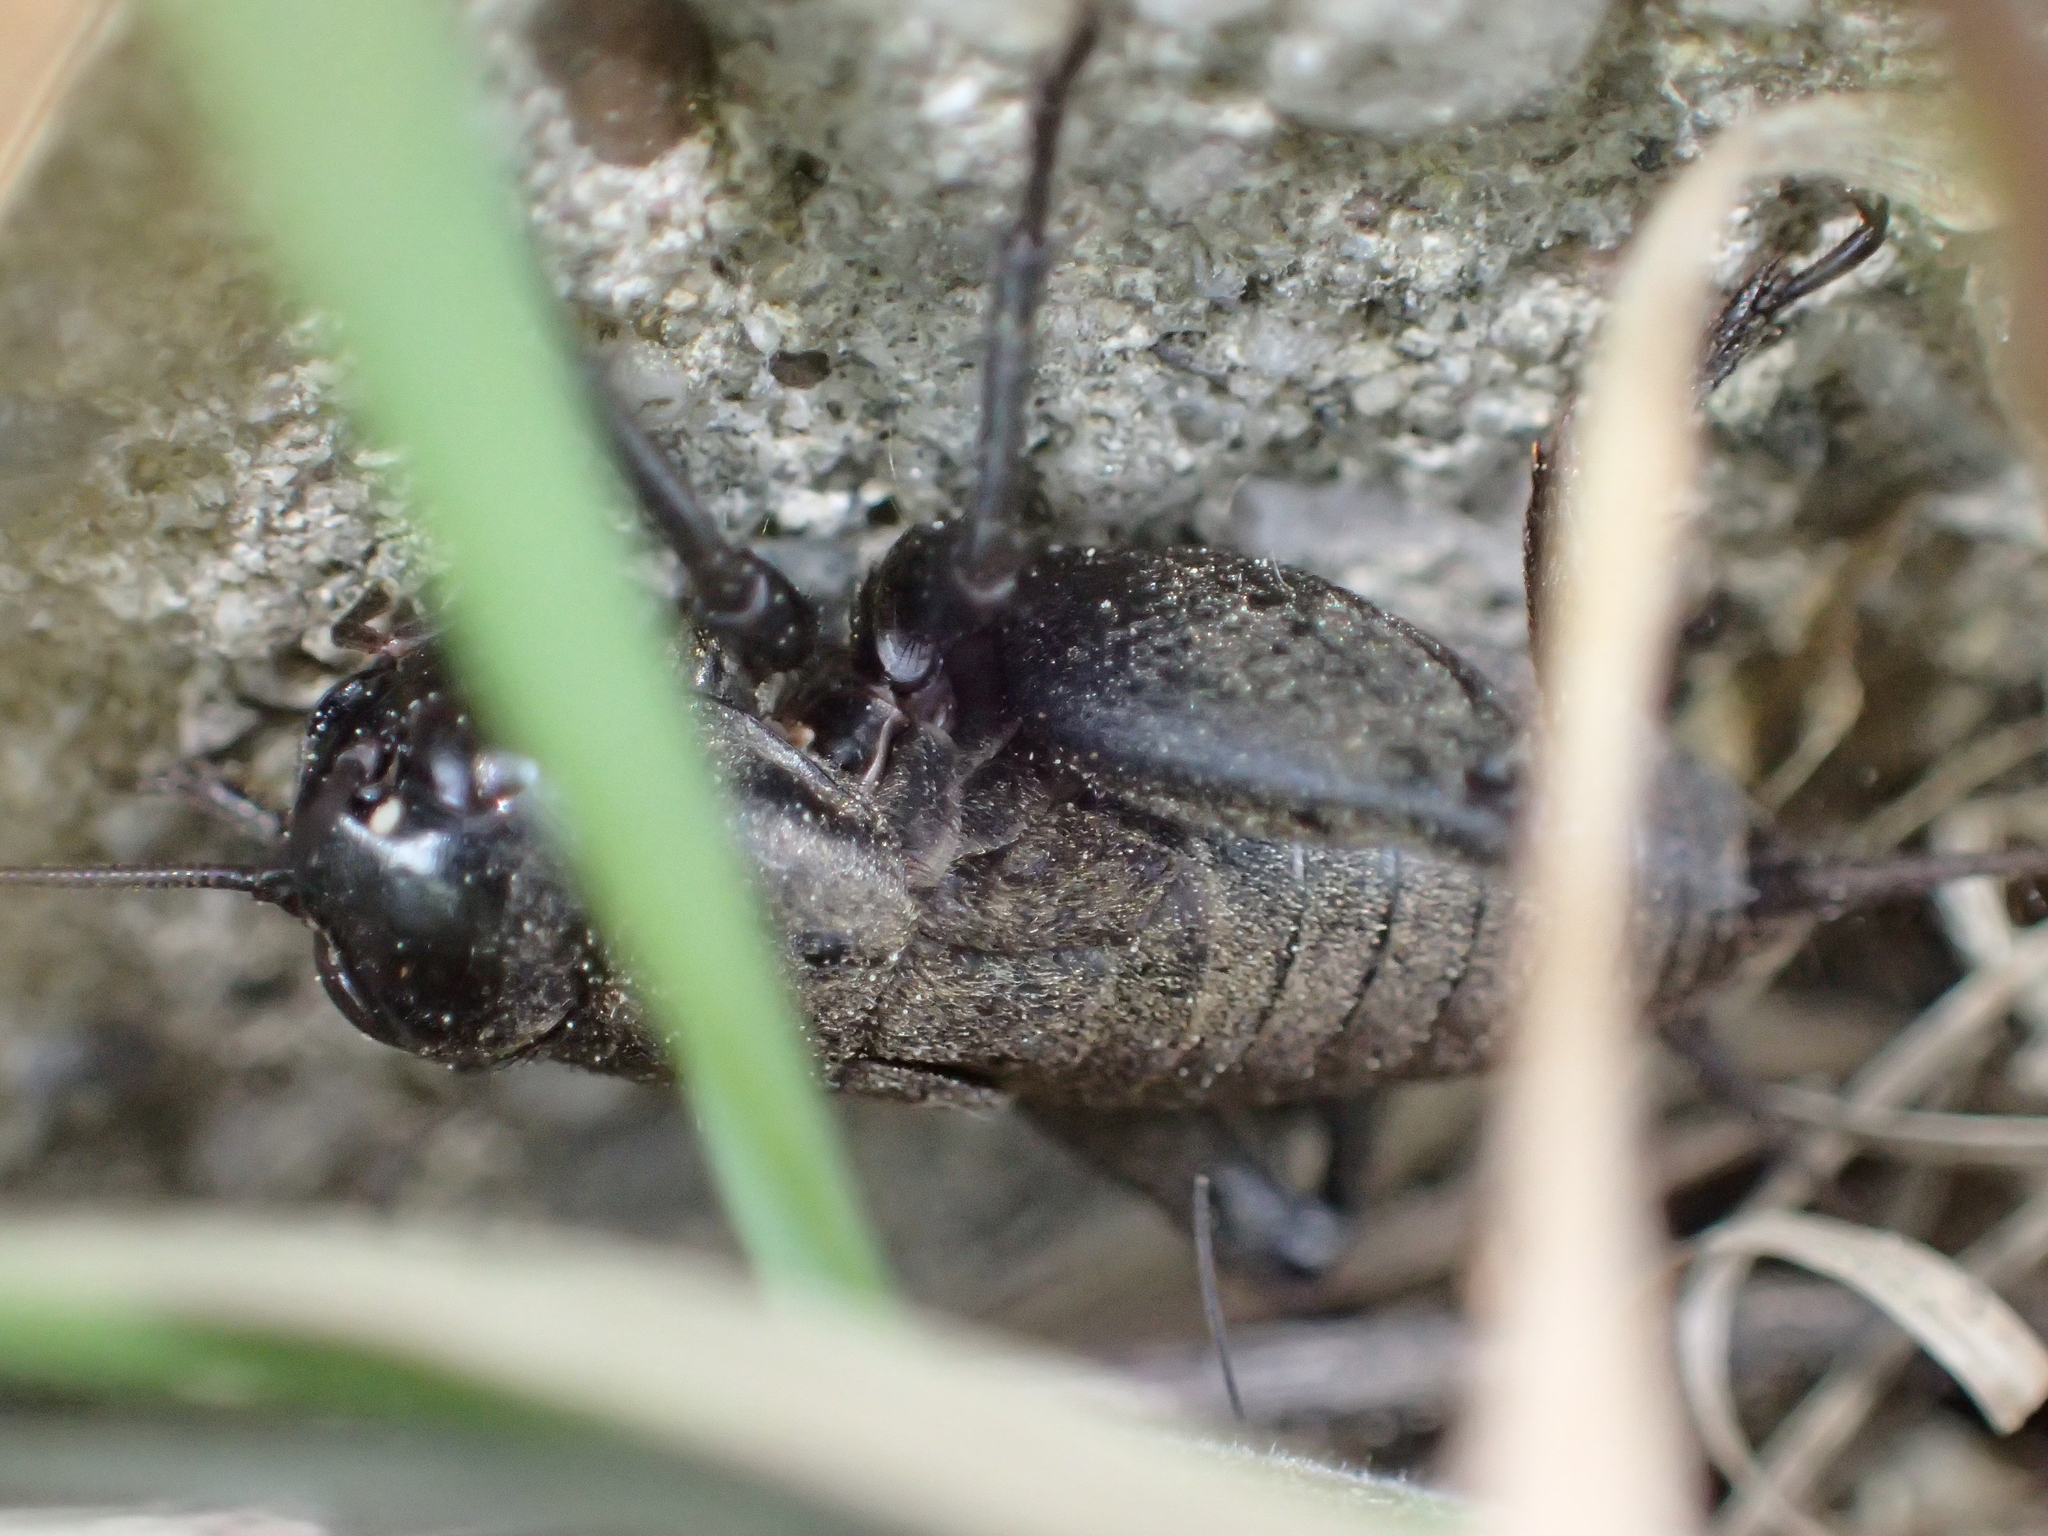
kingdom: Animalia
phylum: Arthropoda
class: Insecta
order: Orthoptera
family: Gryllidae
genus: Melanogryllus
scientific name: Melanogryllus desertus
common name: Desert cricket
